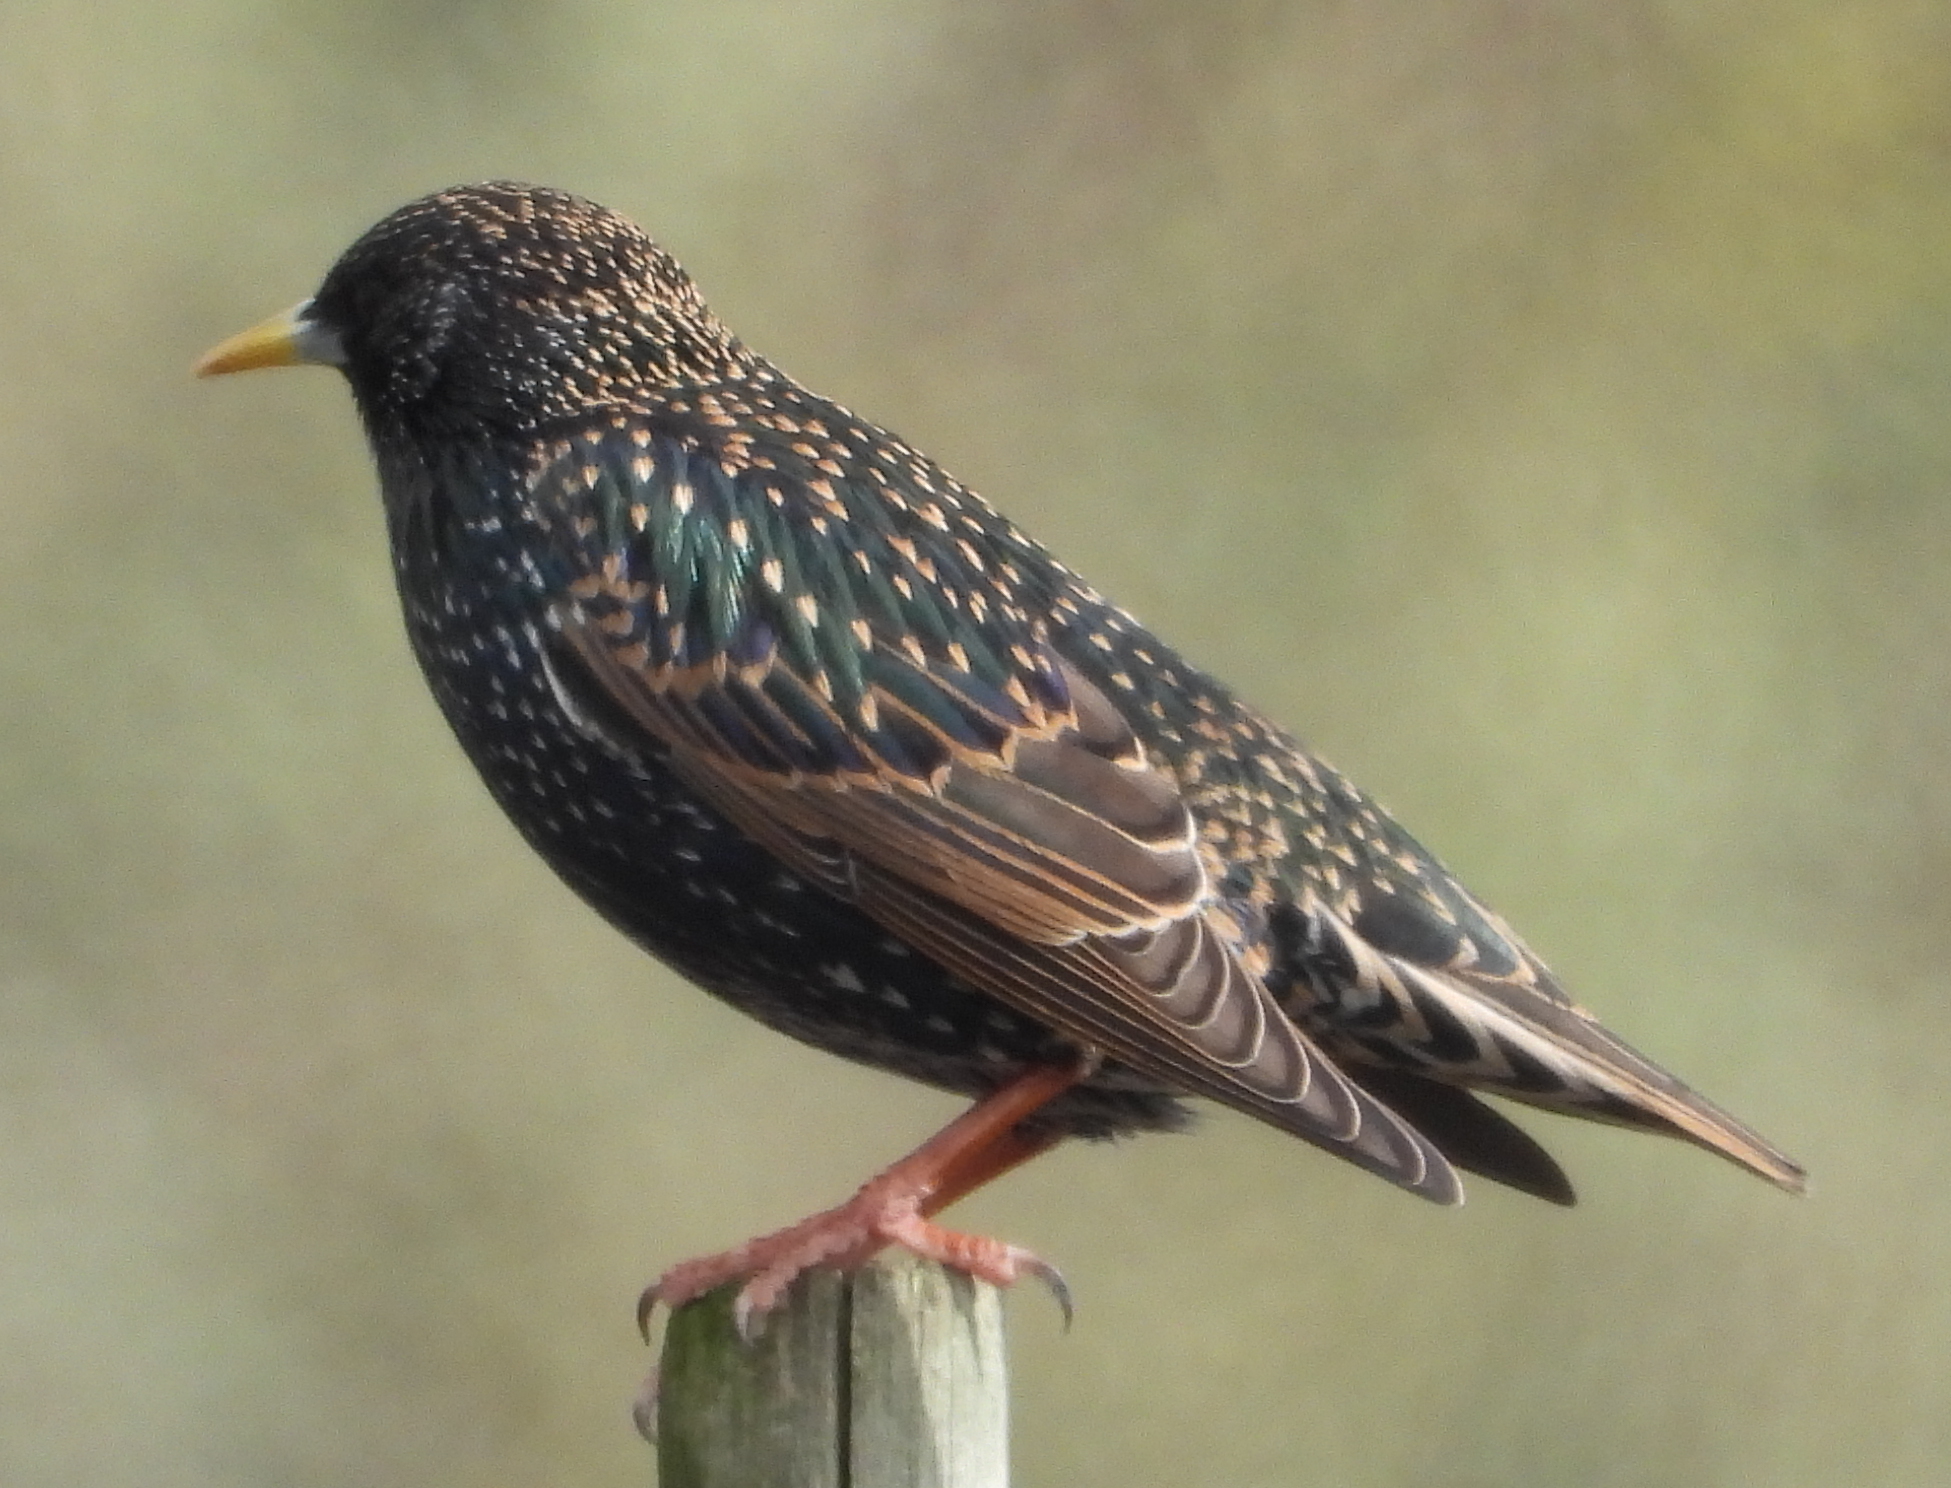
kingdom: Animalia
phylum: Chordata
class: Aves
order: Passeriformes
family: Sturnidae
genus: Sturnus
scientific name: Sturnus vulgaris
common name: Common starling
